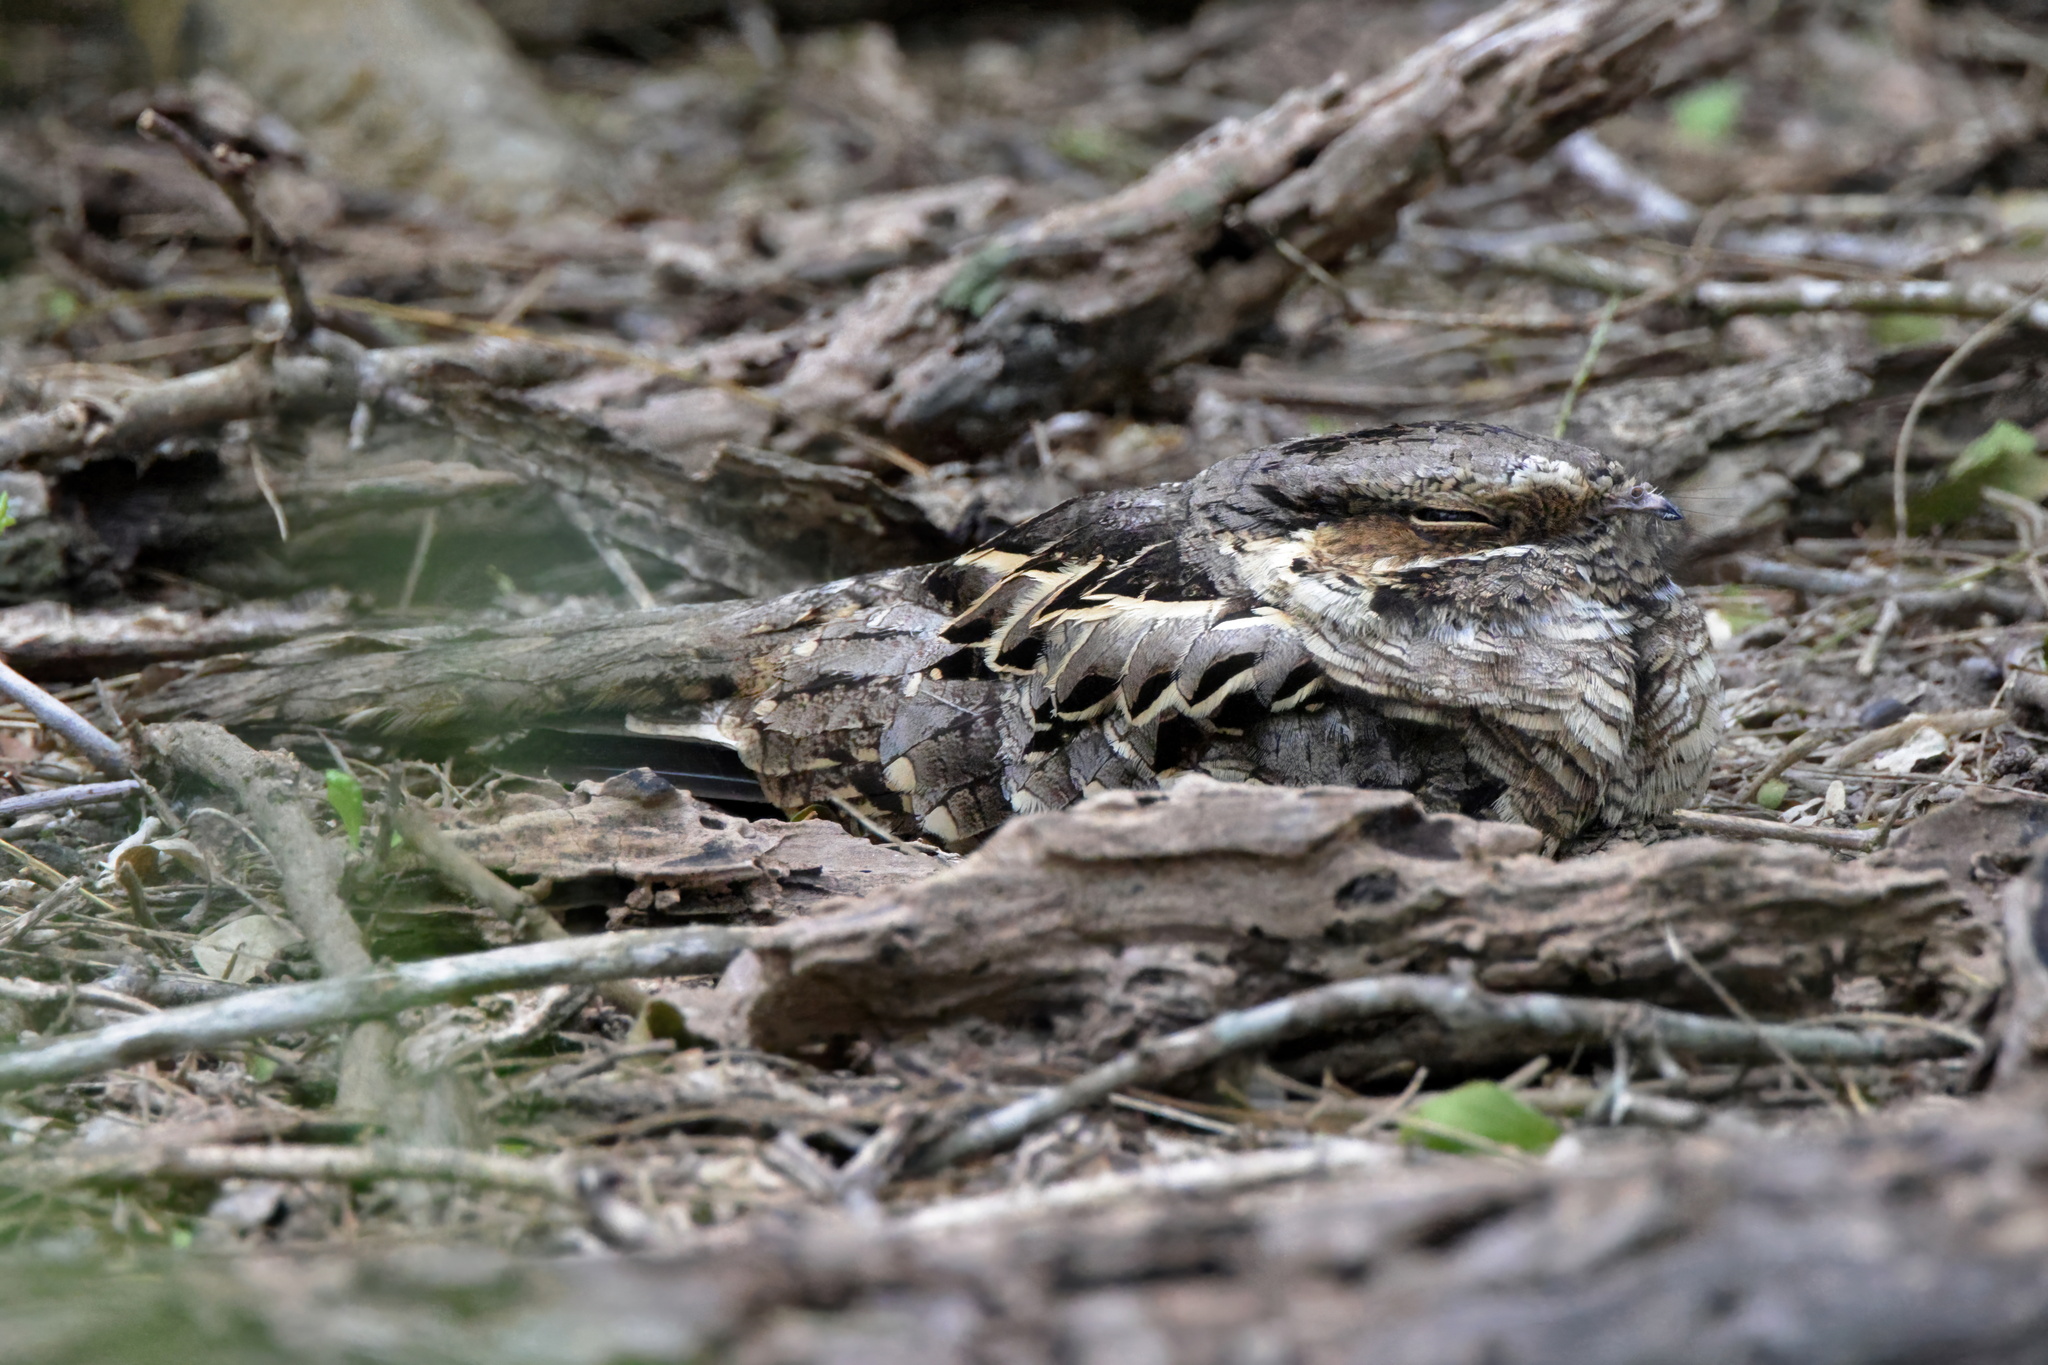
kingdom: Animalia
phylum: Chordata
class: Aves
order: Caprimulgiformes
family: Caprimulgidae
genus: Nyctidromus
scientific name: Nyctidromus albicollis
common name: Pauraque
